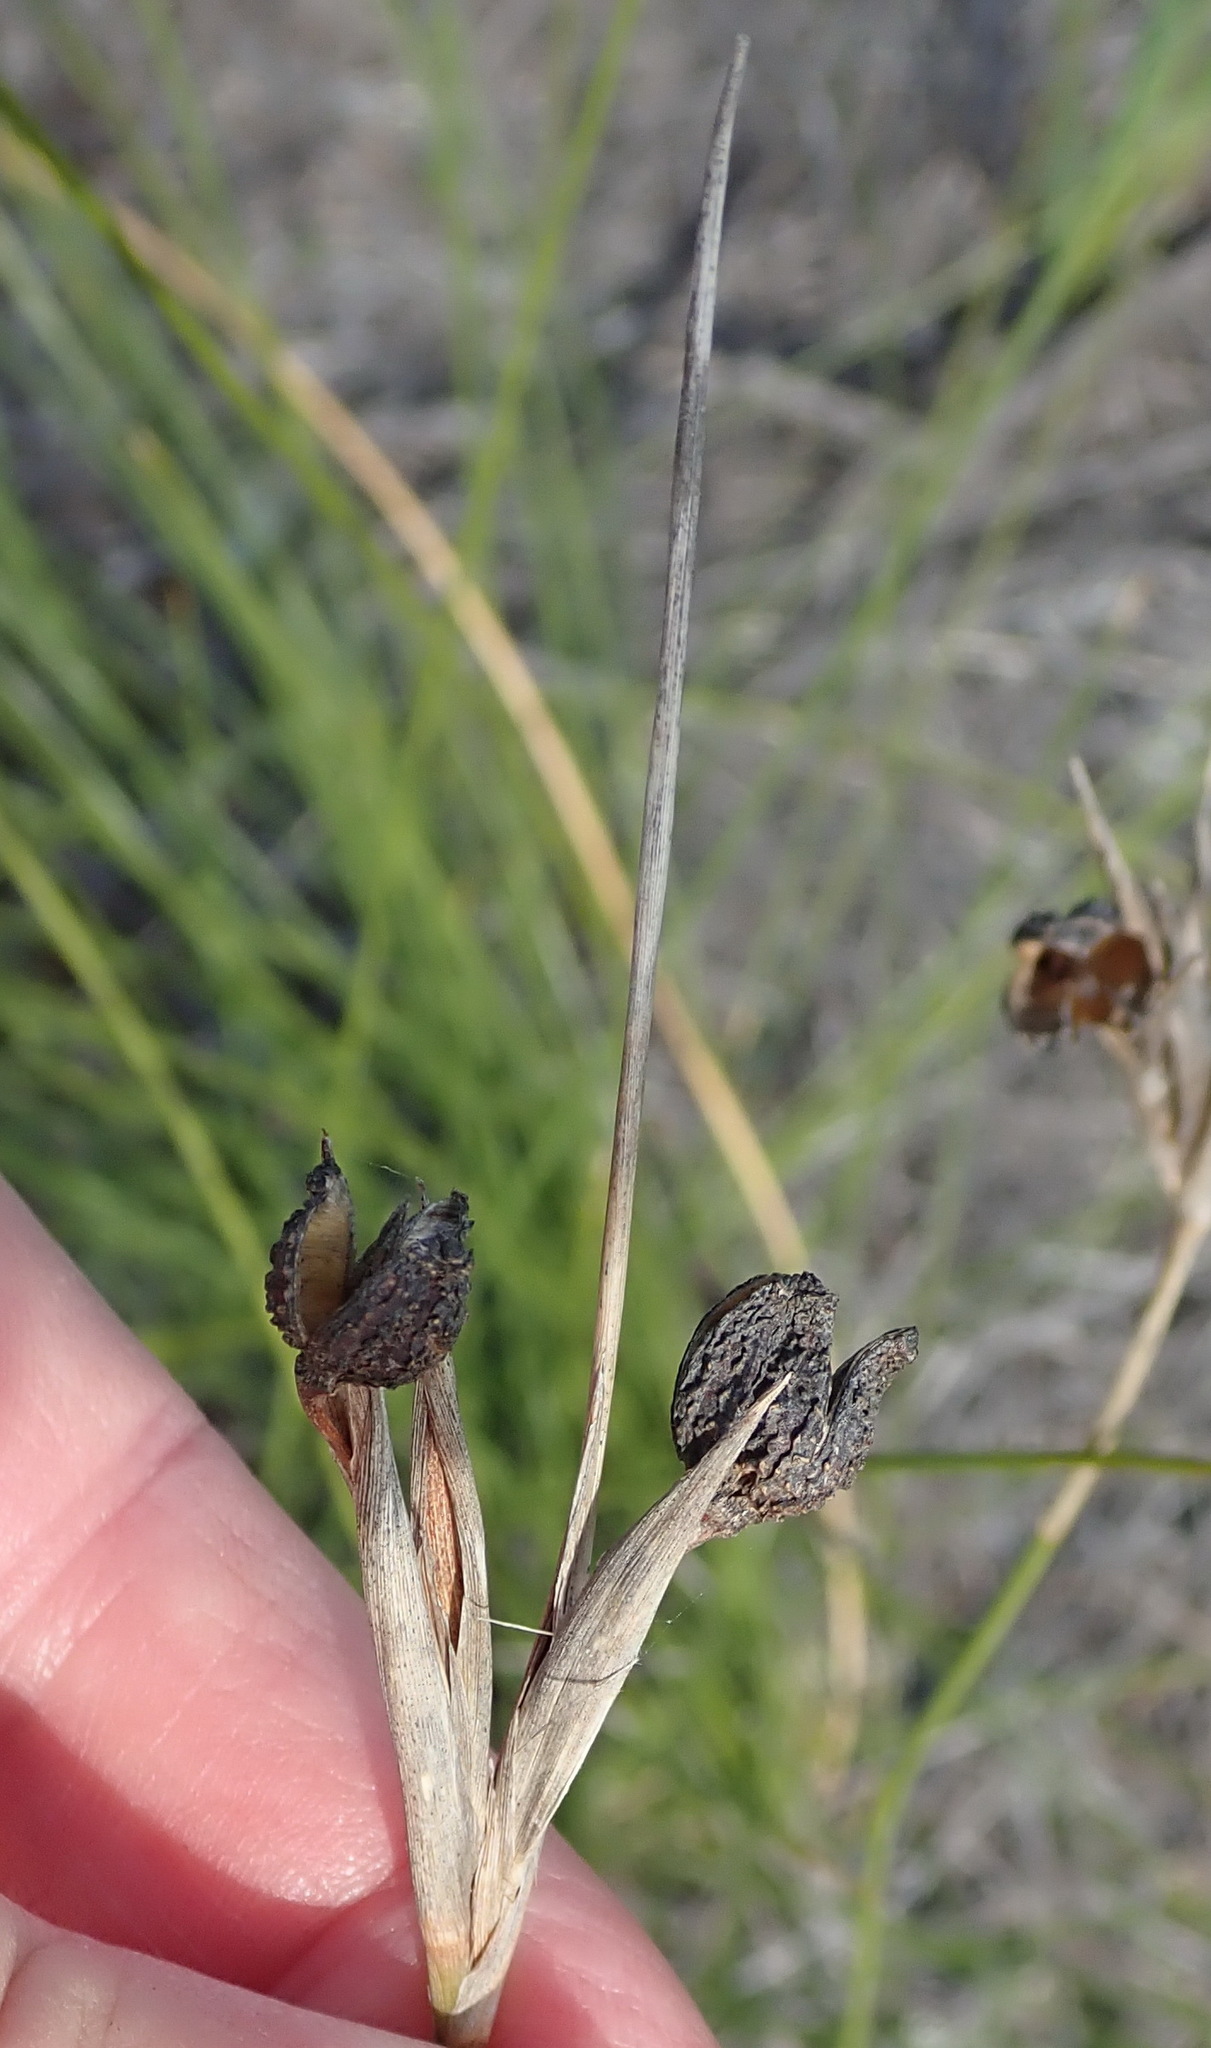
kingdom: Plantae
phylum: Tracheophyta
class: Liliopsida
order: Asparagales
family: Iridaceae
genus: Bobartia
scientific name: Bobartia aphylla
